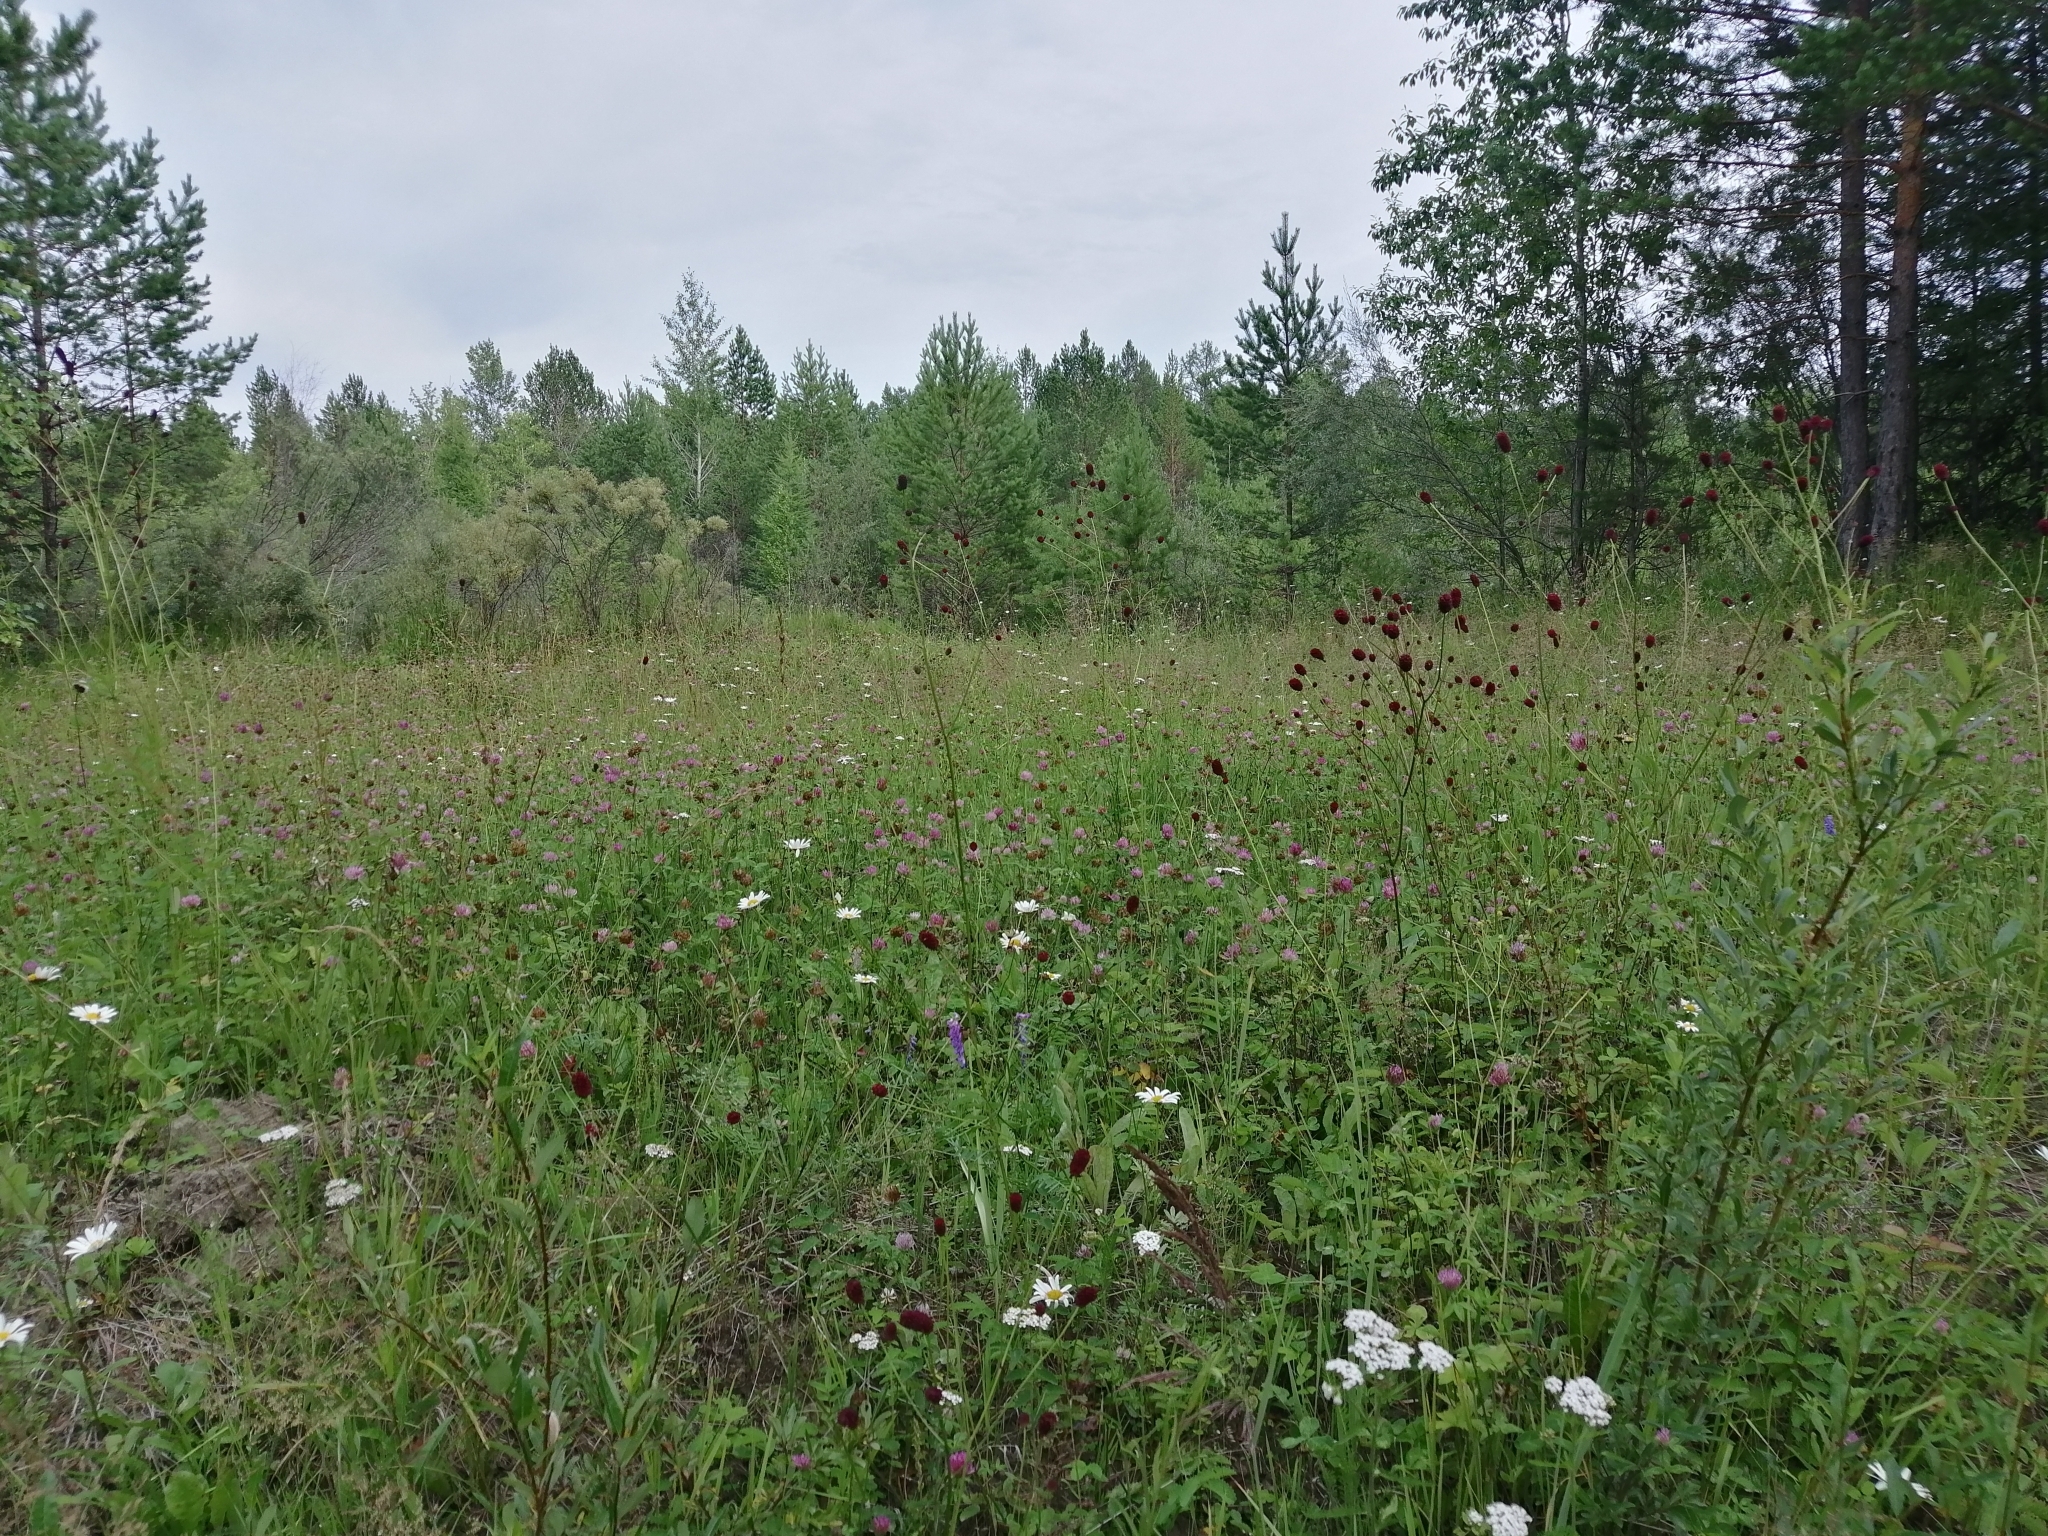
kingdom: Plantae
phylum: Tracheophyta
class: Magnoliopsida
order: Rosales
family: Rosaceae
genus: Sanguisorba
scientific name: Sanguisorba officinalis
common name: Great burnet
